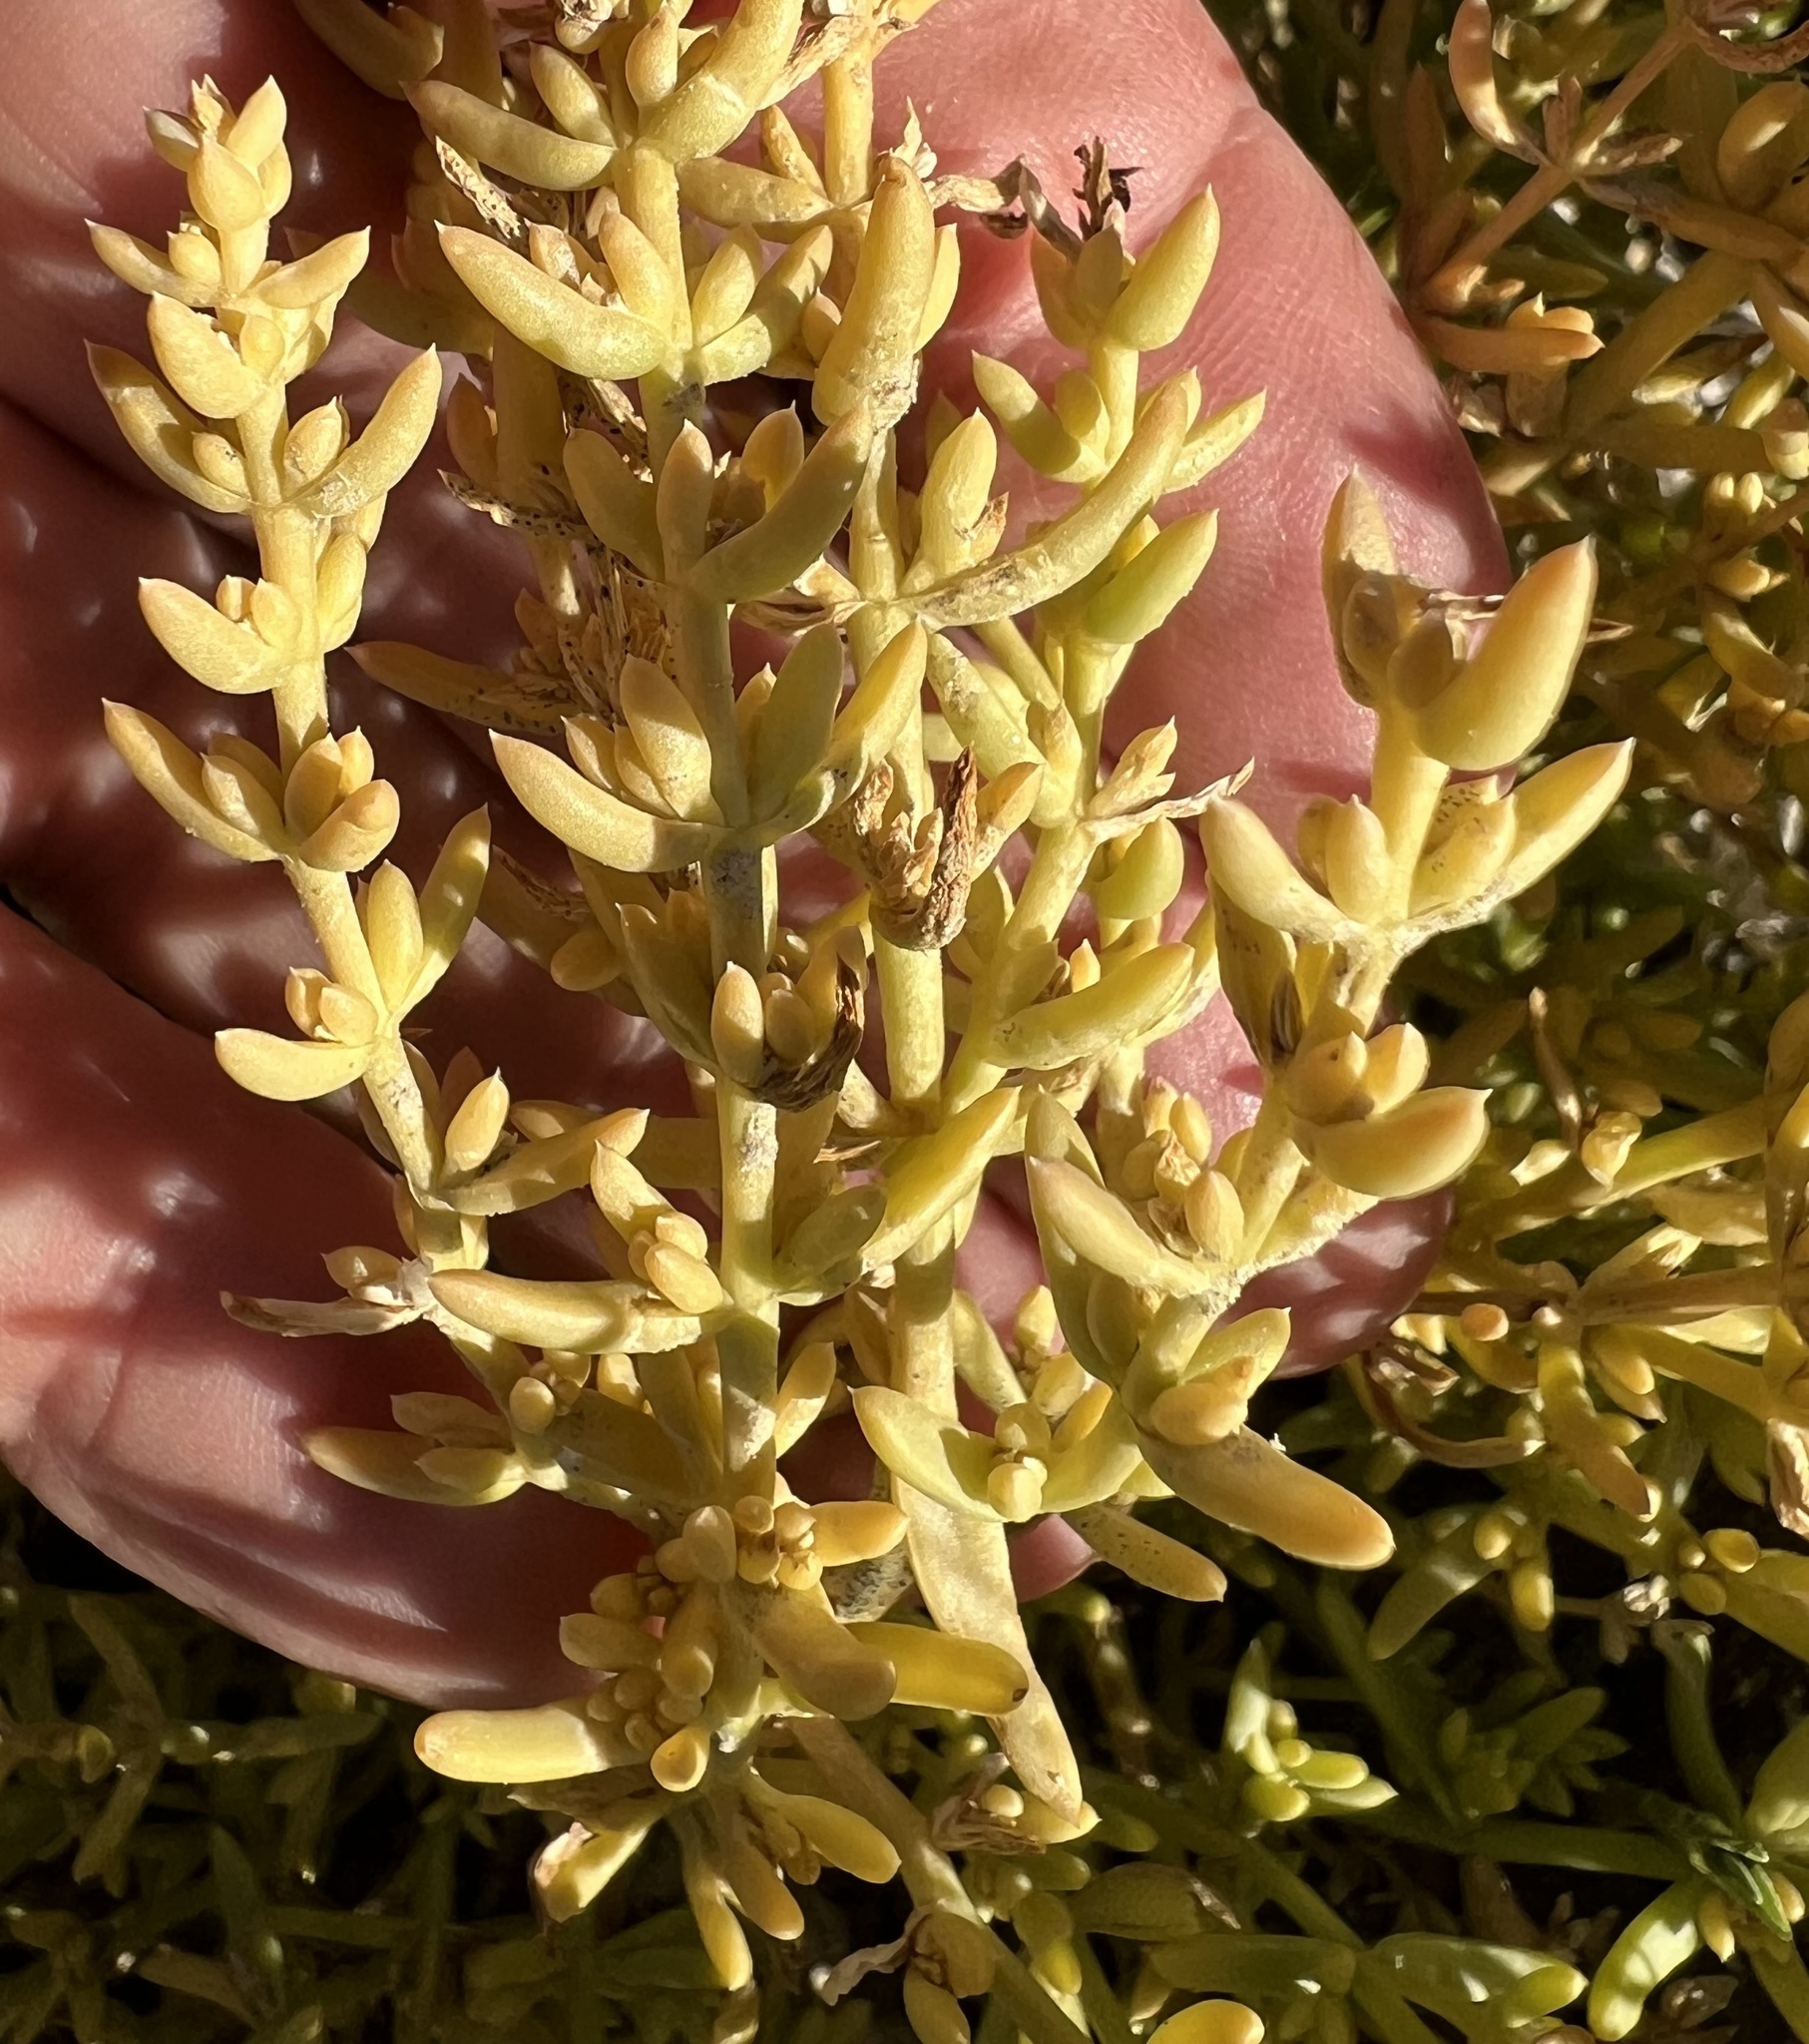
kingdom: Plantae
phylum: Tracheophyta
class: Magnoliopsida
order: Caryophyllales
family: Amaranthaceae
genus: Nitrophila
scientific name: Nitrophila occidentalis
